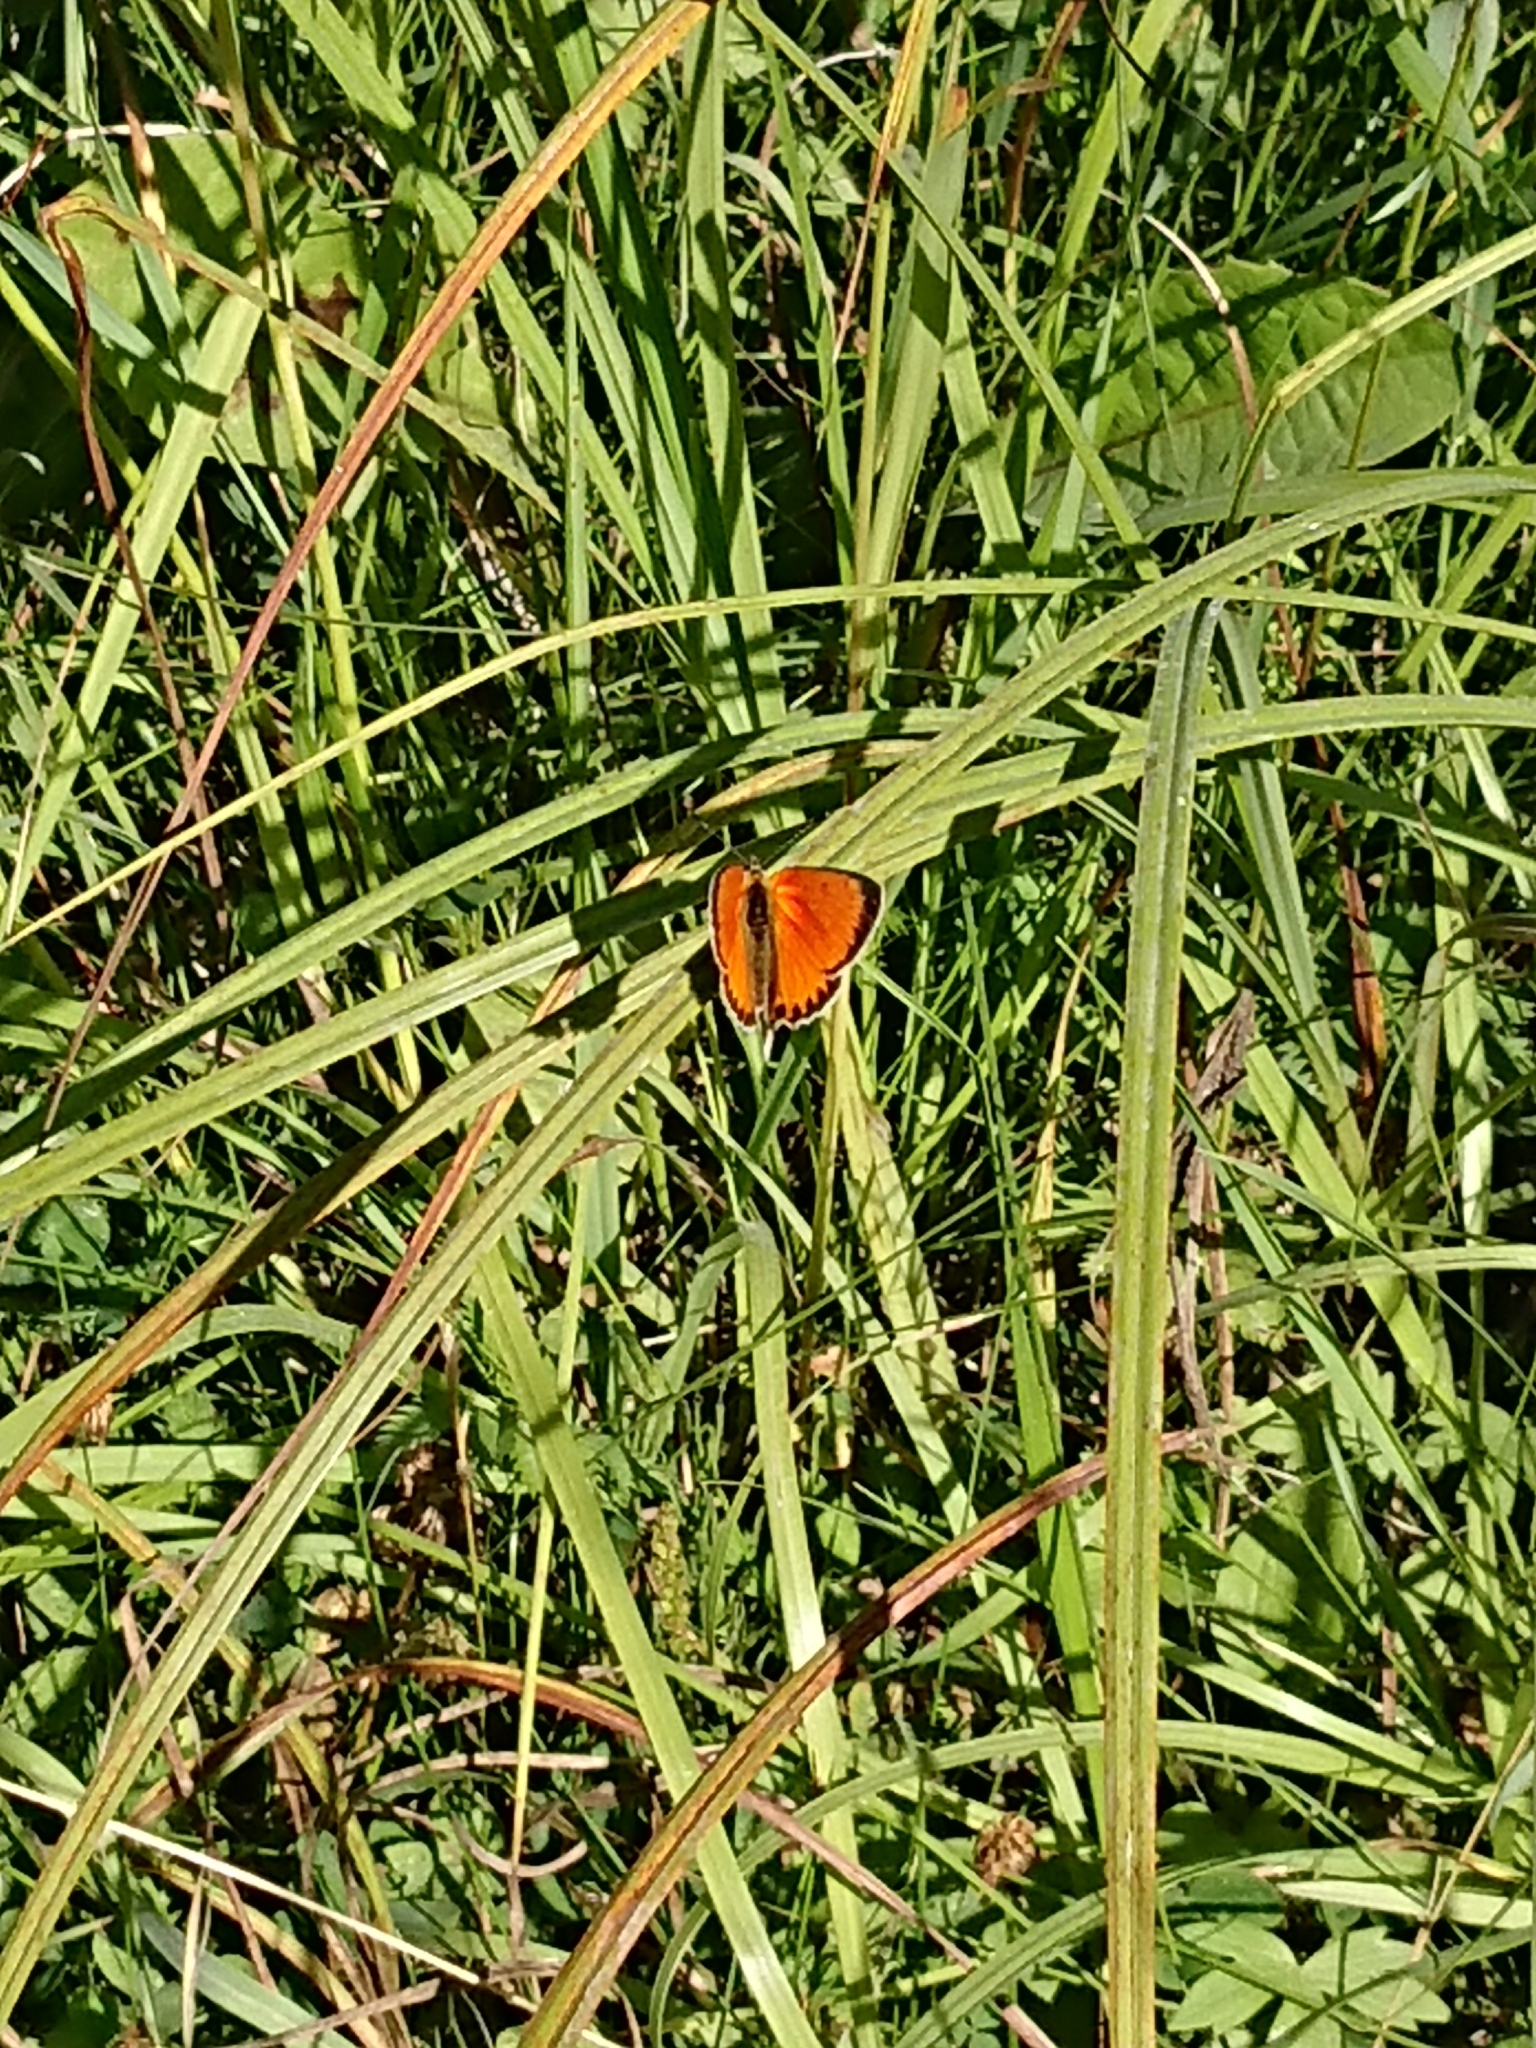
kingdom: Animalia
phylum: Arthropoda
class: Insecta
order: Lepidoptera
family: Lycaenidae
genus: Lycaena
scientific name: Lycaena virgaureae
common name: Scarce copper
